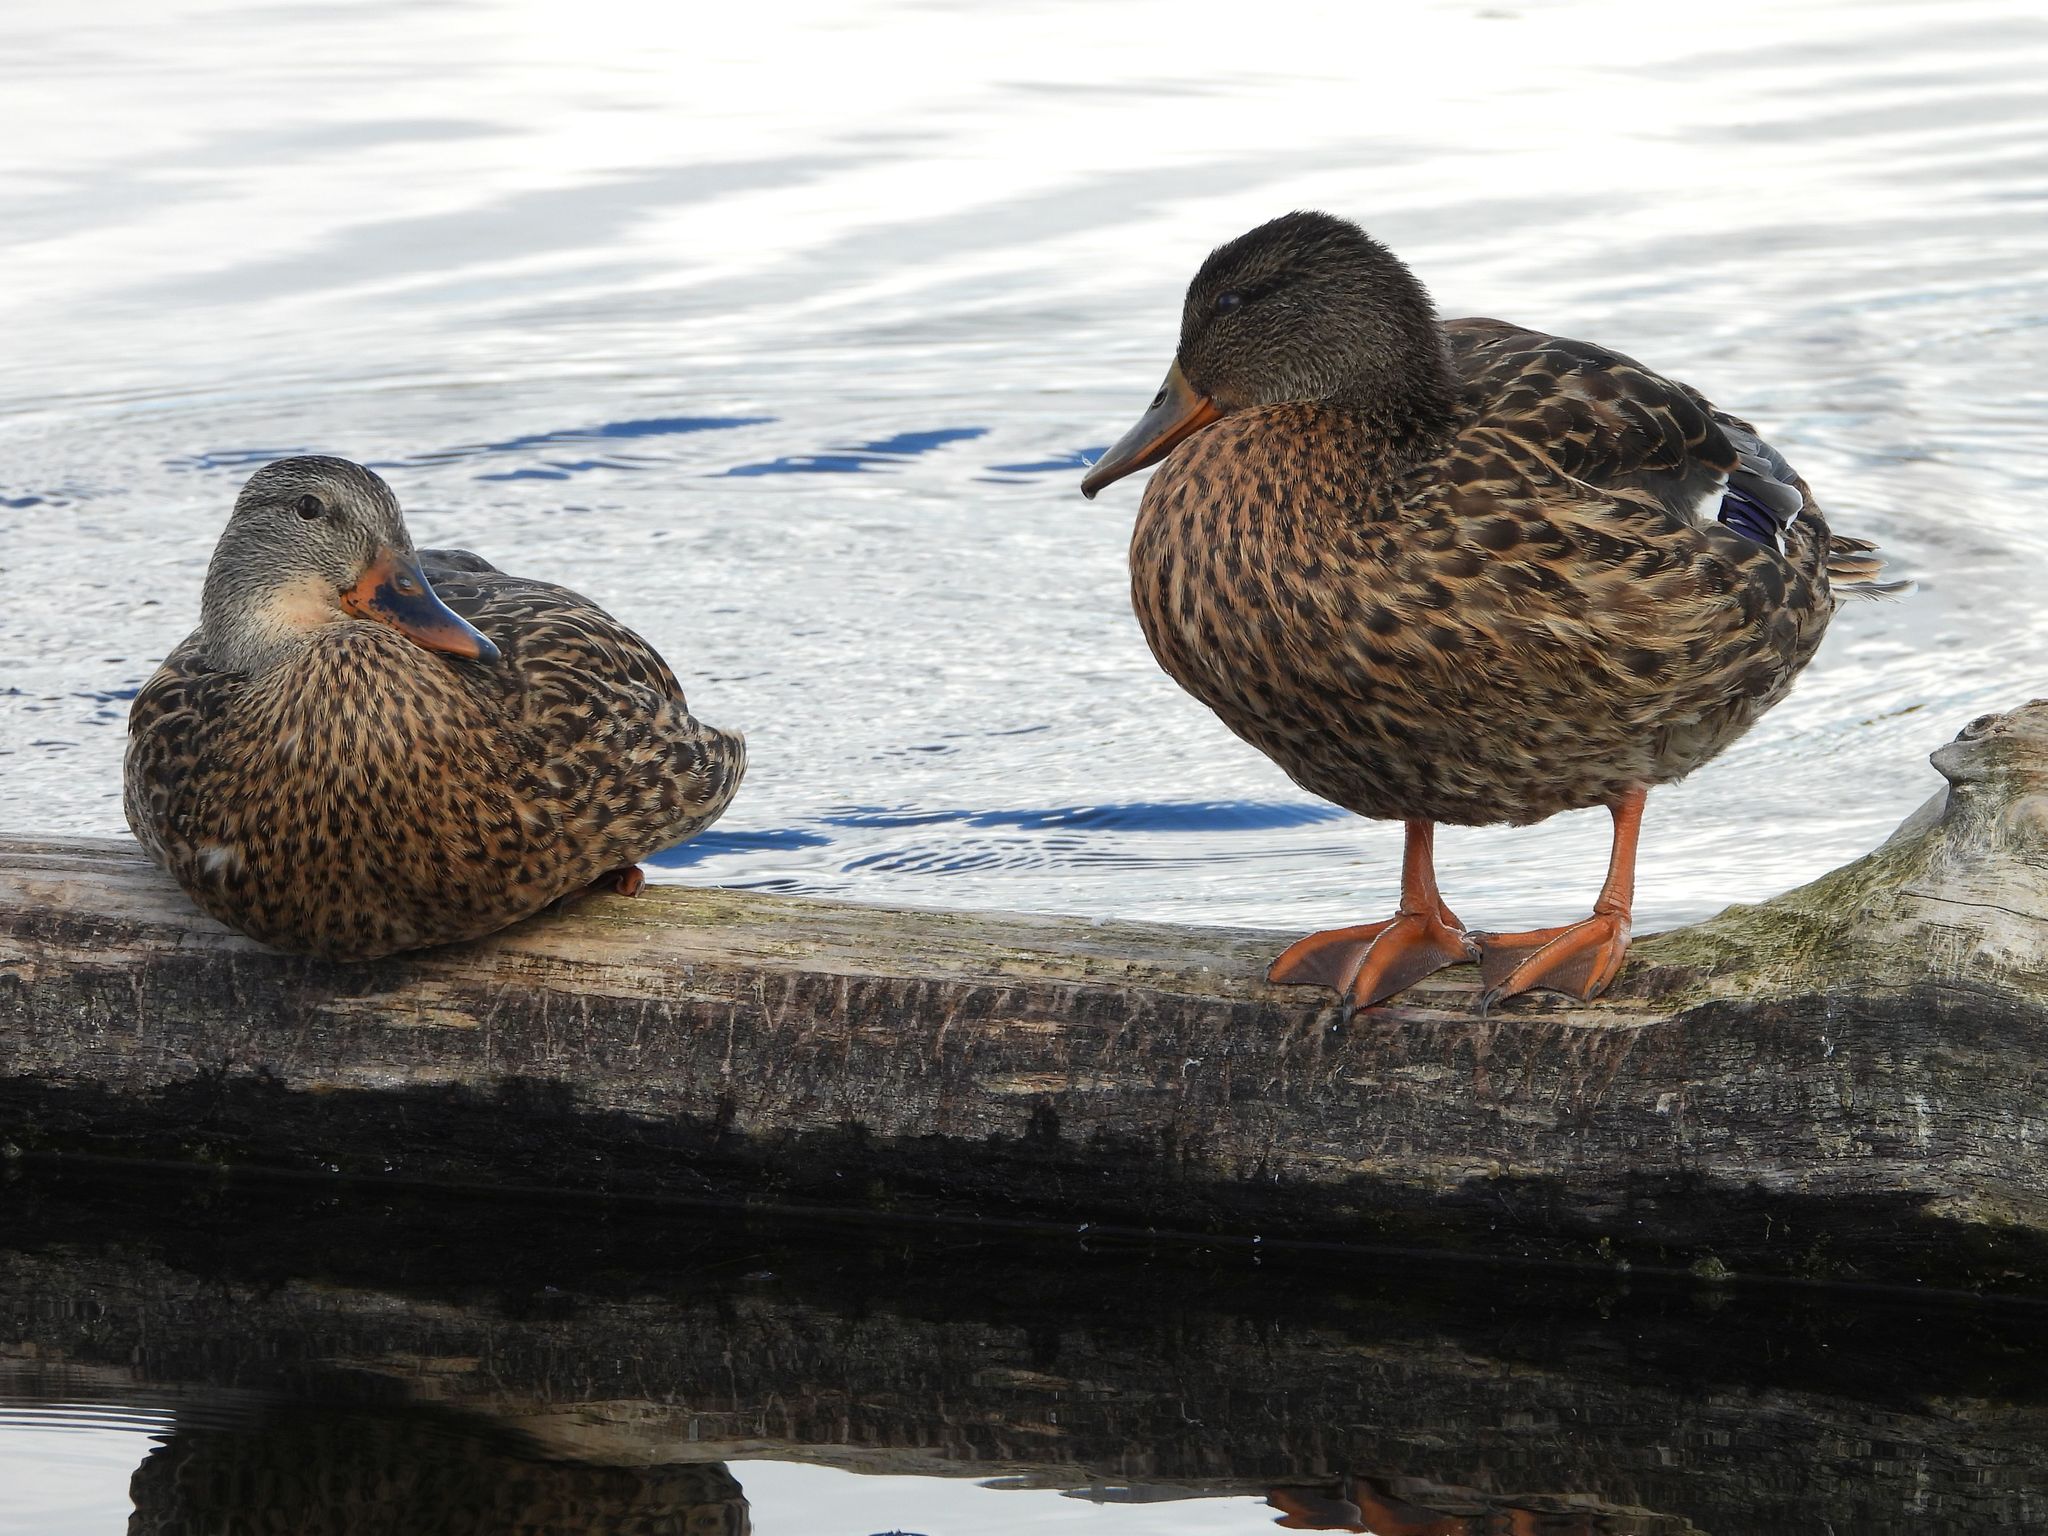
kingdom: Animalia
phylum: Chordata
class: Aves
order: Anseriformes
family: Anatidae
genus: Anas
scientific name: Anas platyrhynchos
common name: Mallard
